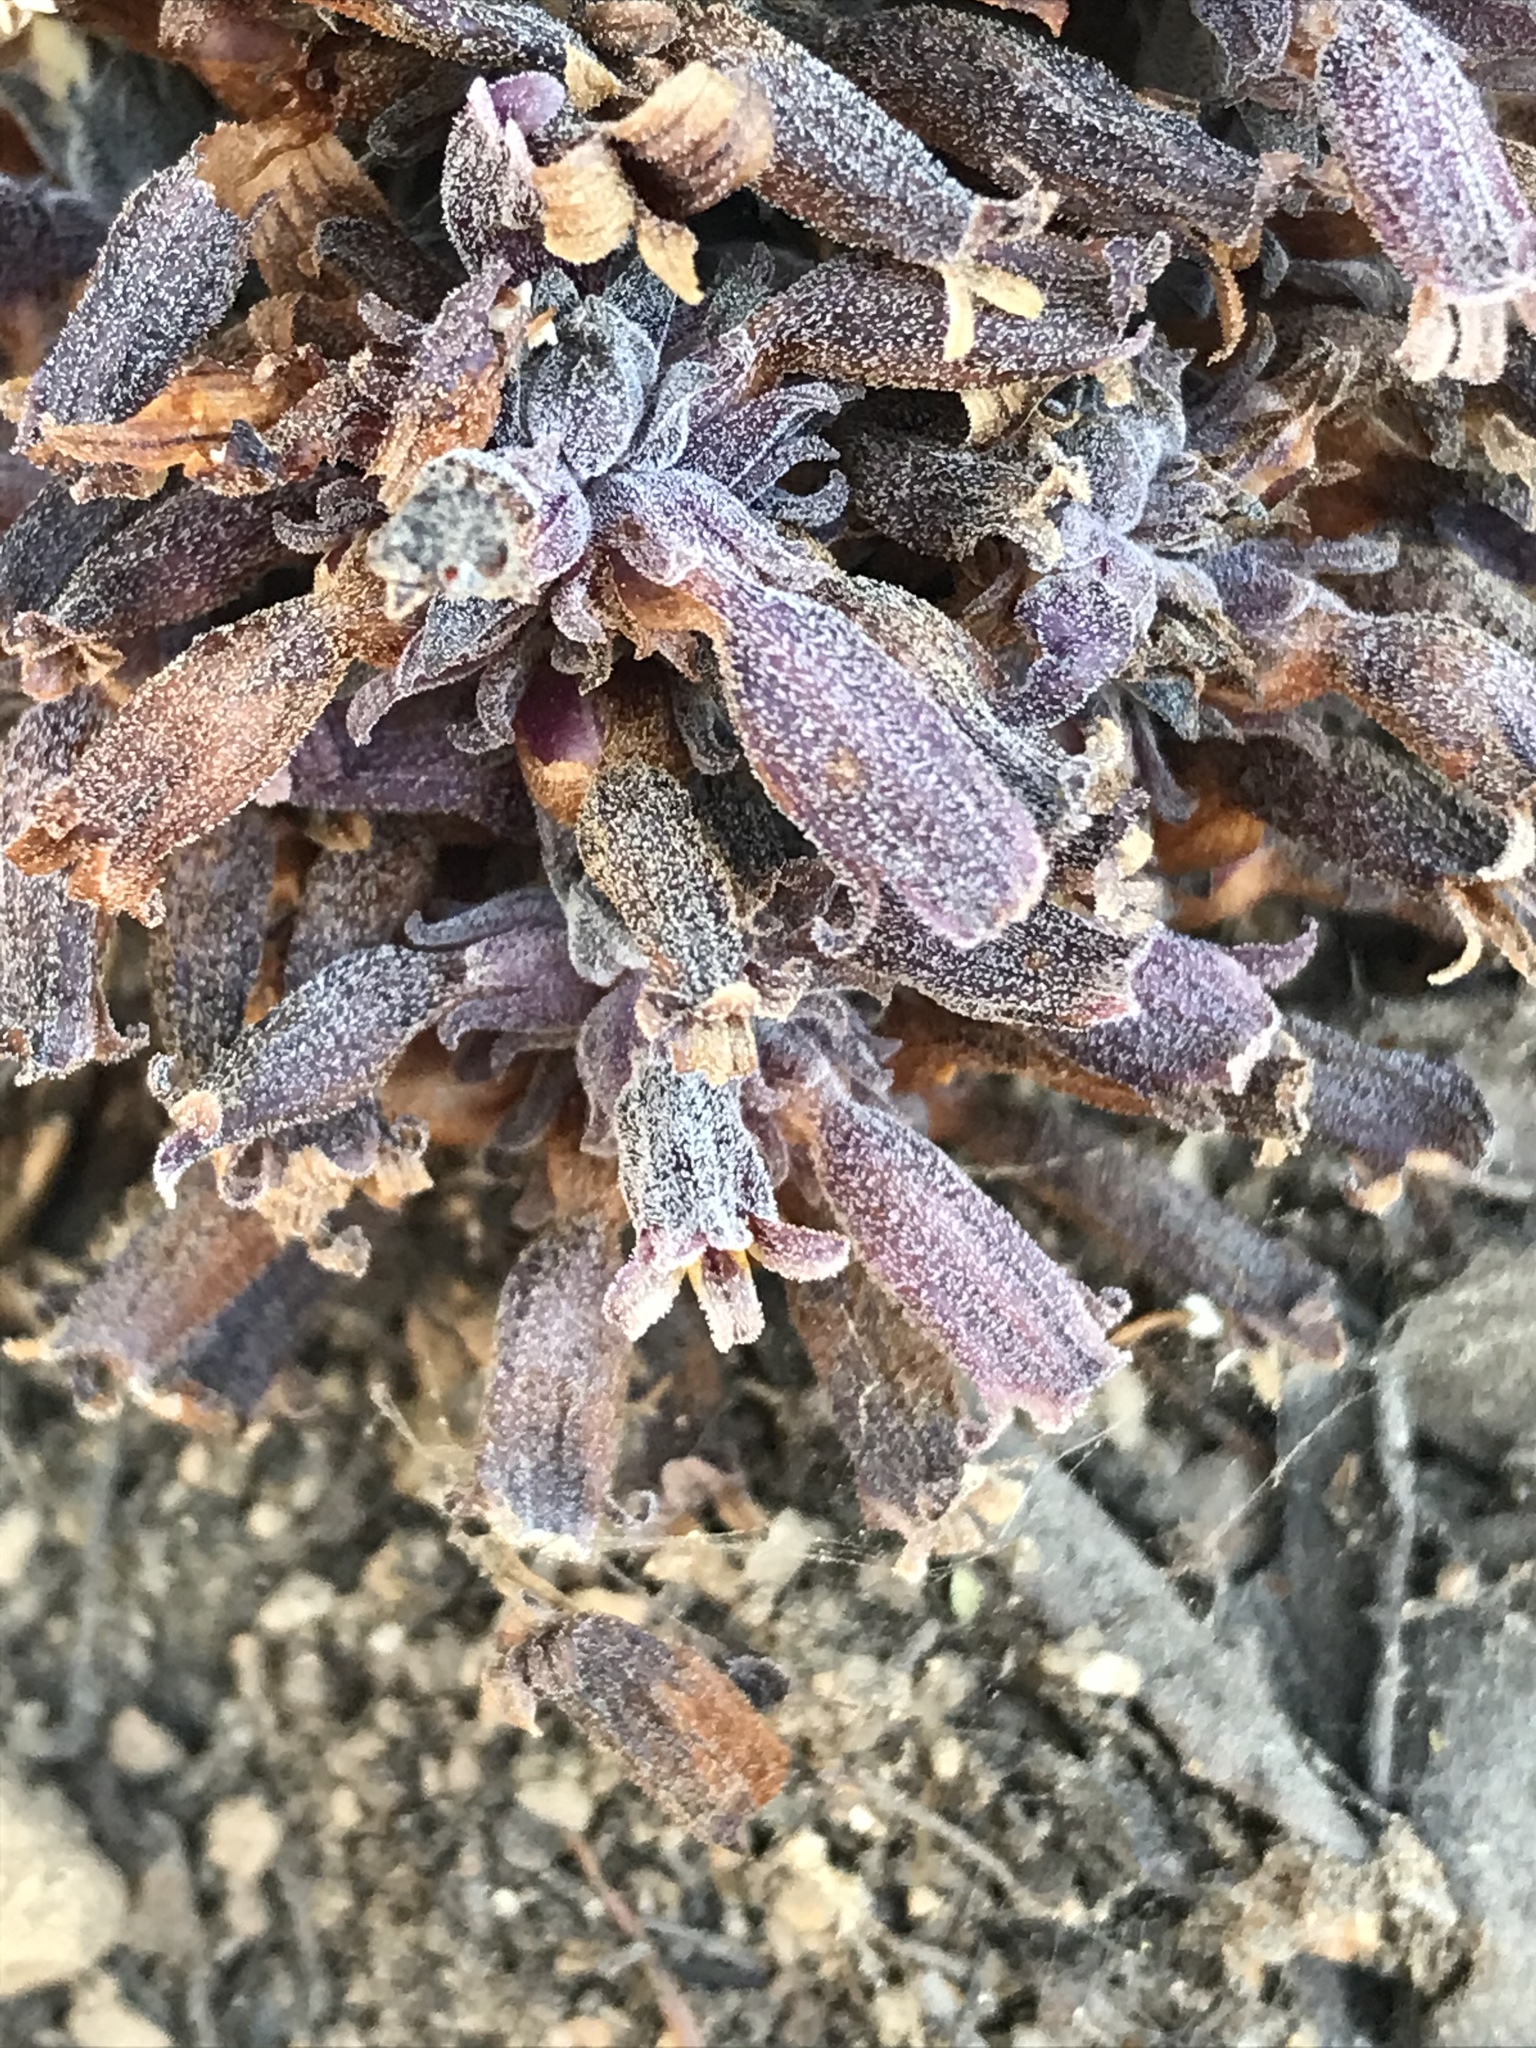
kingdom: Plantae
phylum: Tracheophyta
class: Magnoliopsida
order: Lamiales
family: Orobanchaceae
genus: Aphyllon
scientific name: Aphyllon tuberosum
